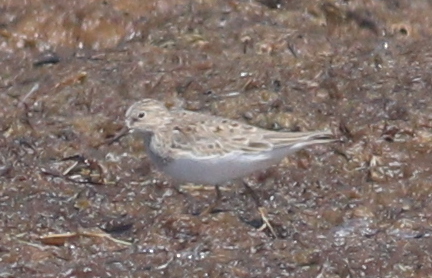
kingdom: Animalia
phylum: Chordata
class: Aves
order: Charadriiformes
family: Scolopacidae
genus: Calidris
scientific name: Calidris temminckii
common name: Temminck's stint
